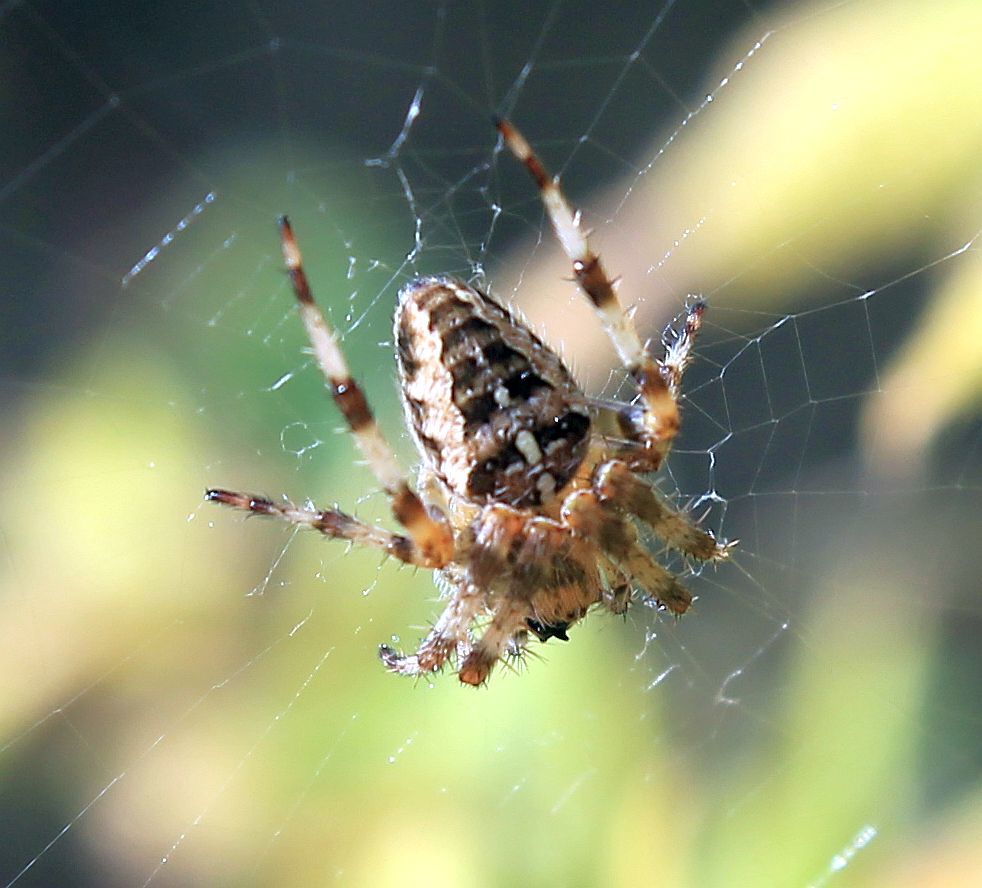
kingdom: Animalia
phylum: Arthropoda
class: Arachnida
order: Araneae
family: Araneidae
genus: Araneus
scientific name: Araneus diadematus
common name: Cross orbweaver
